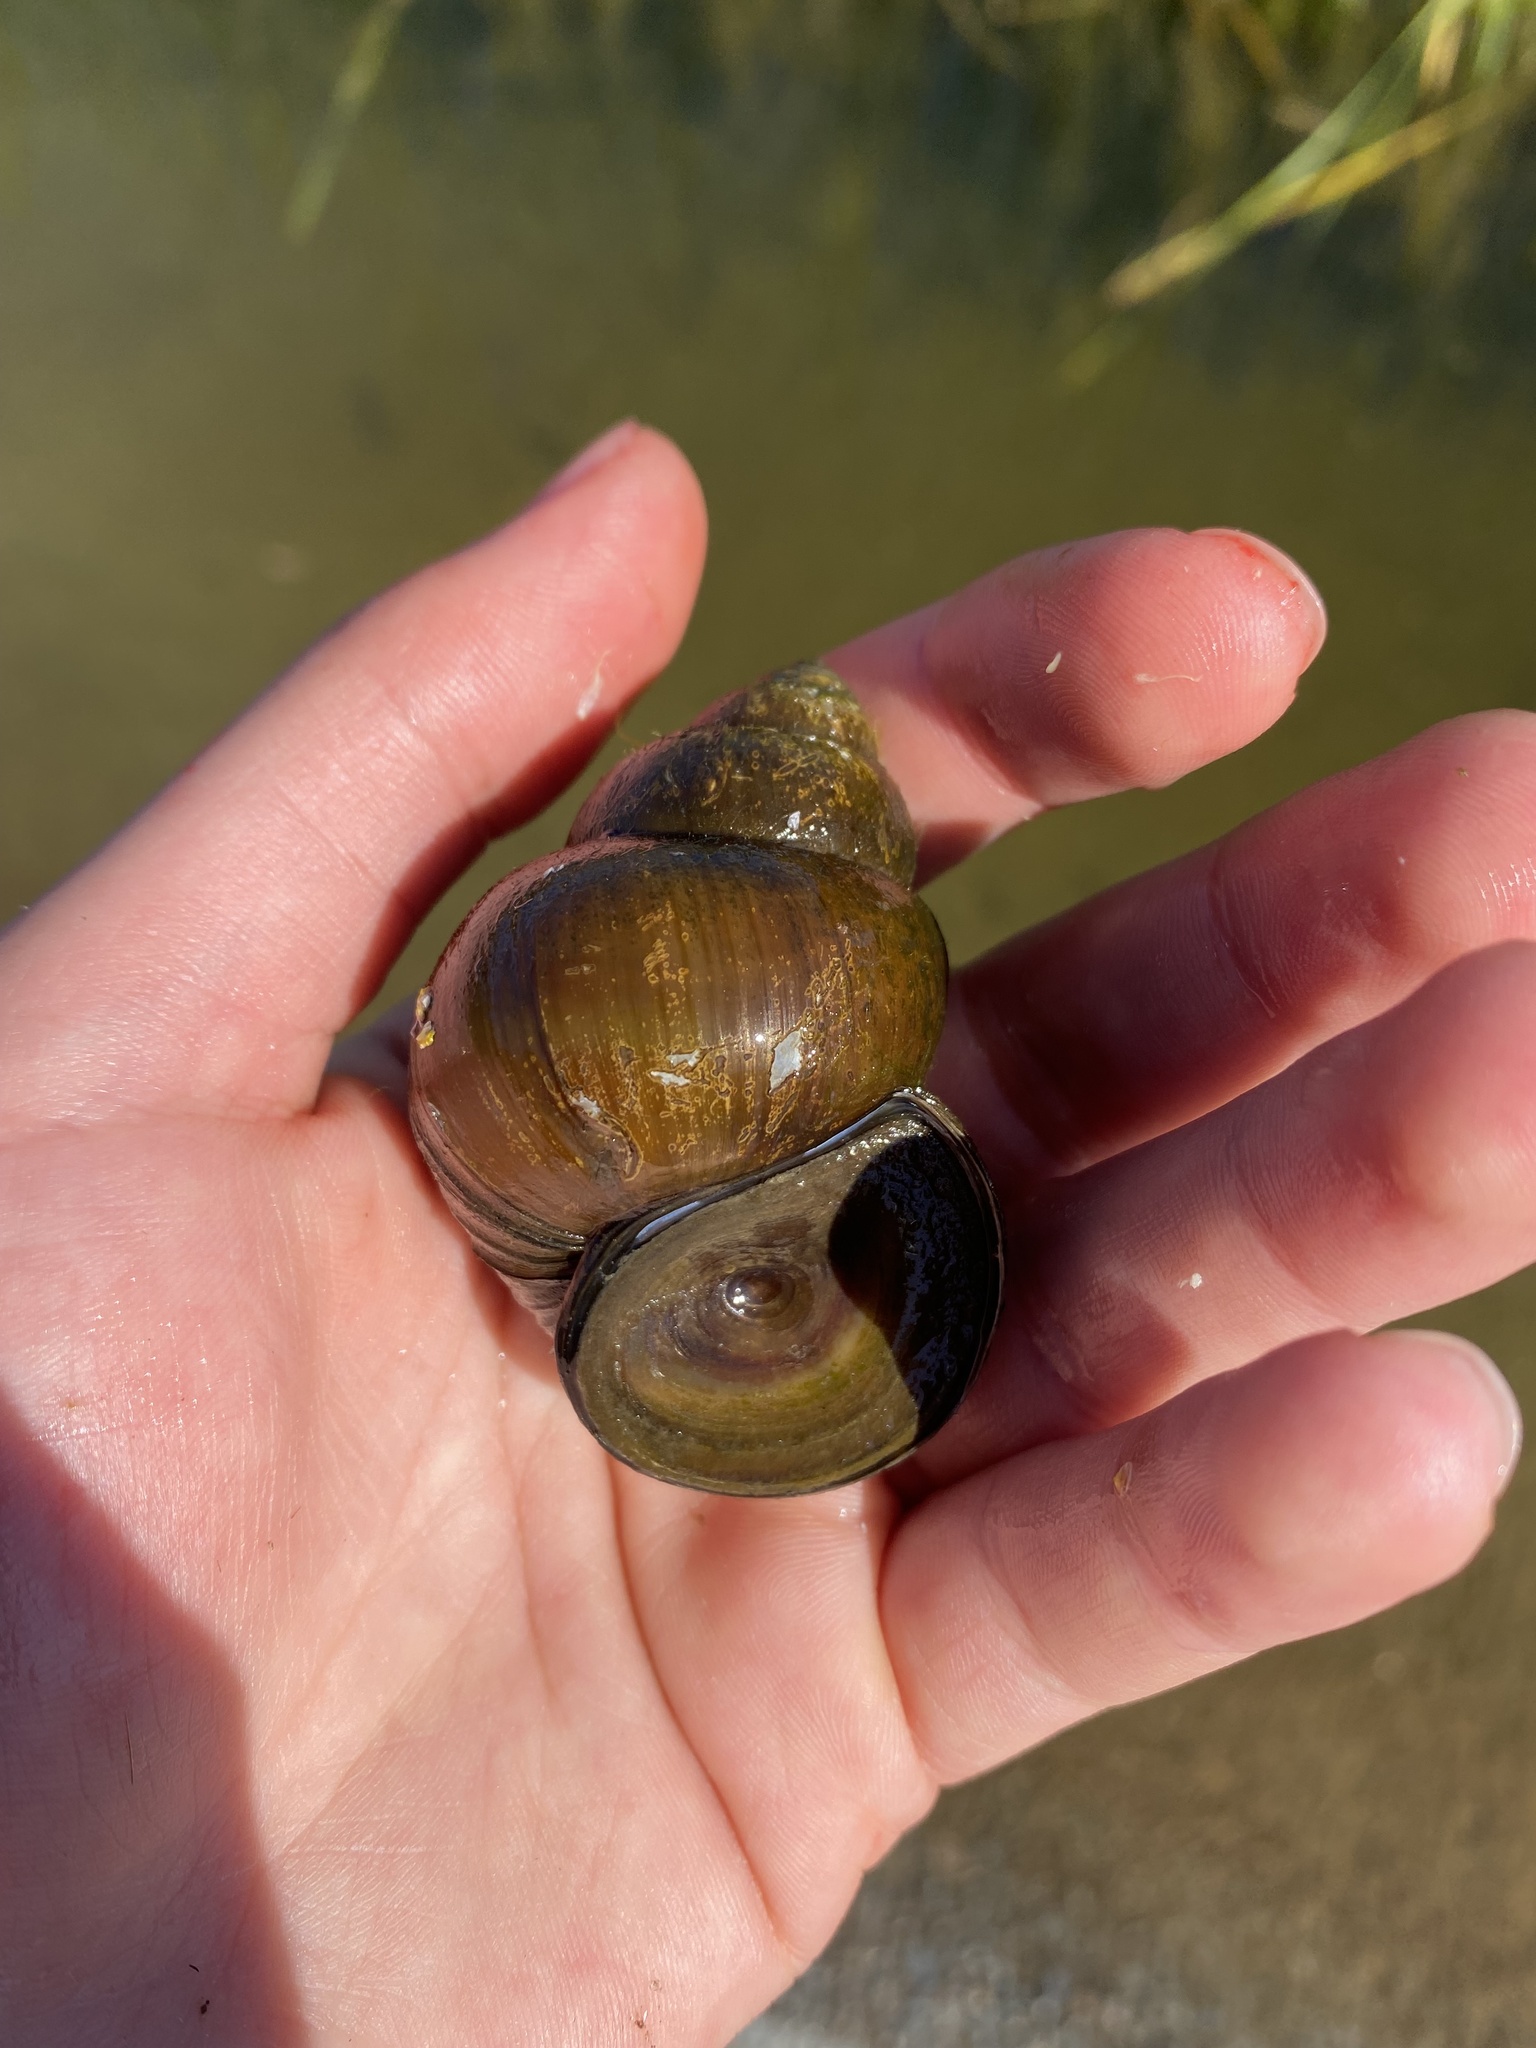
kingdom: Animalia
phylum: Mollusca
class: Gastropoda
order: Architaenioglossa
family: Viviparidae
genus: Cipangopaludina
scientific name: Cipangopaludina chinensis
